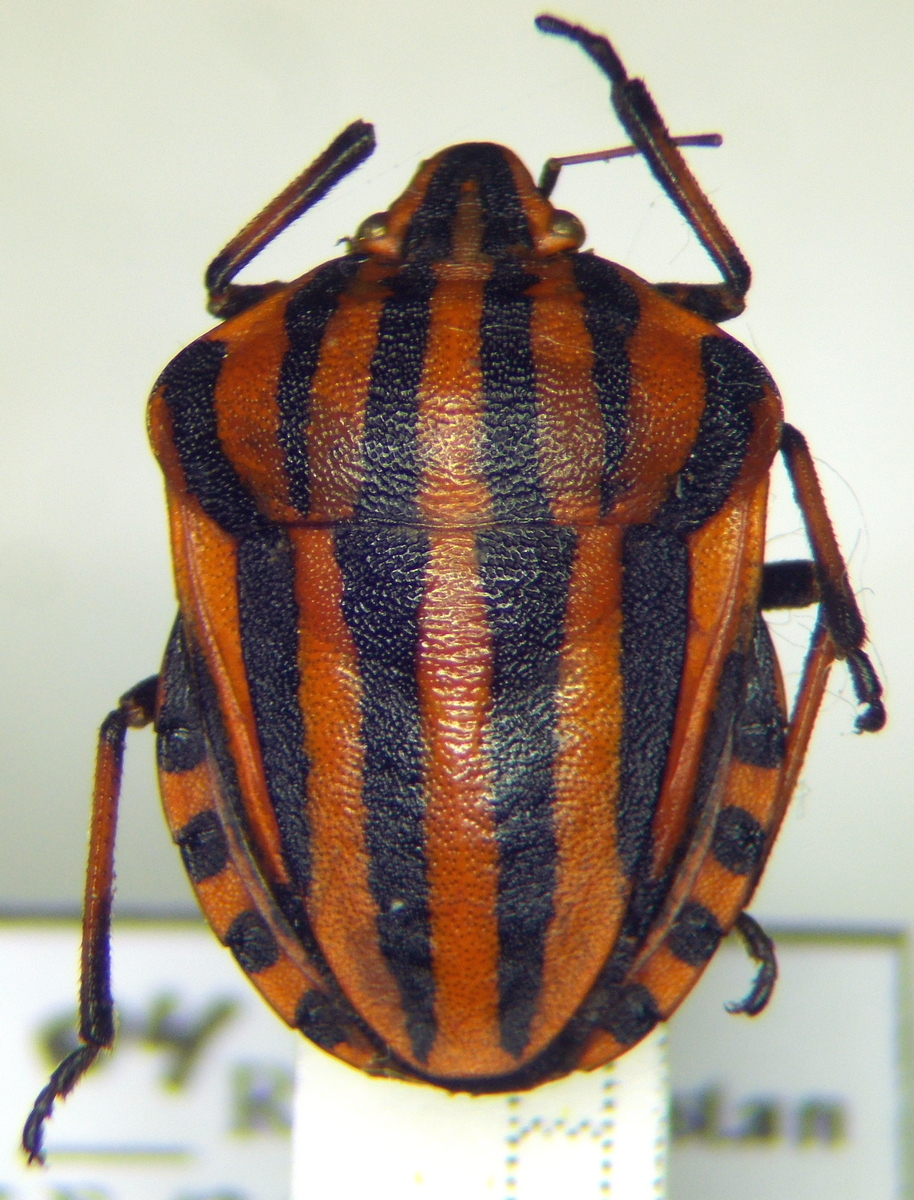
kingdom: Animalia
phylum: Arthropoda
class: Insecta
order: Hemiptera
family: Pentatomidae
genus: Graphosoma
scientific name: Graphosoma italicum
